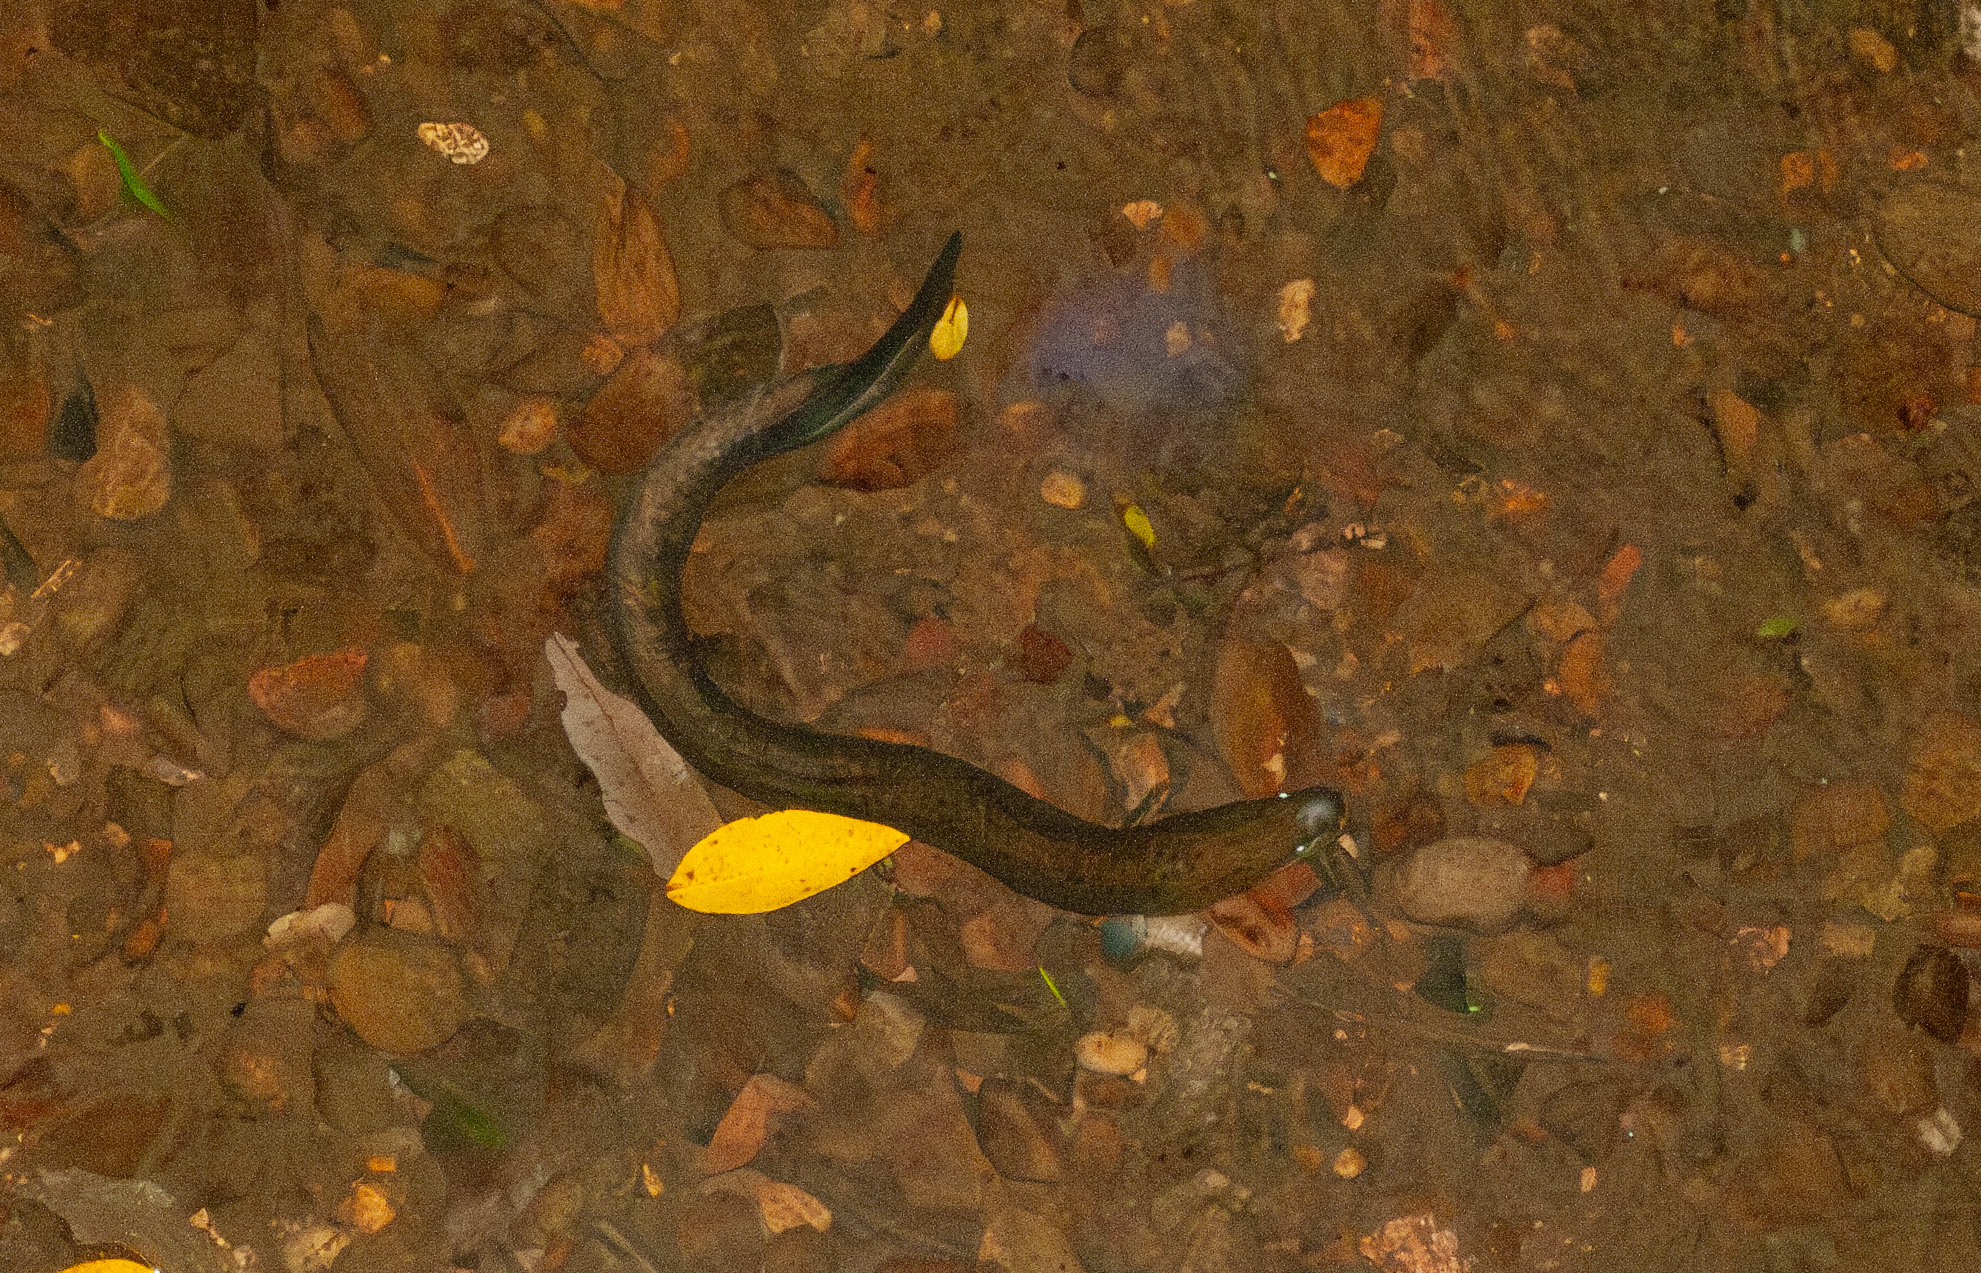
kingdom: Animalia
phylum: Chordata
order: Anguilliformes
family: Anguillidae
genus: Anguilla
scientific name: Anguilla reinhardtii
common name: Longfin eel
